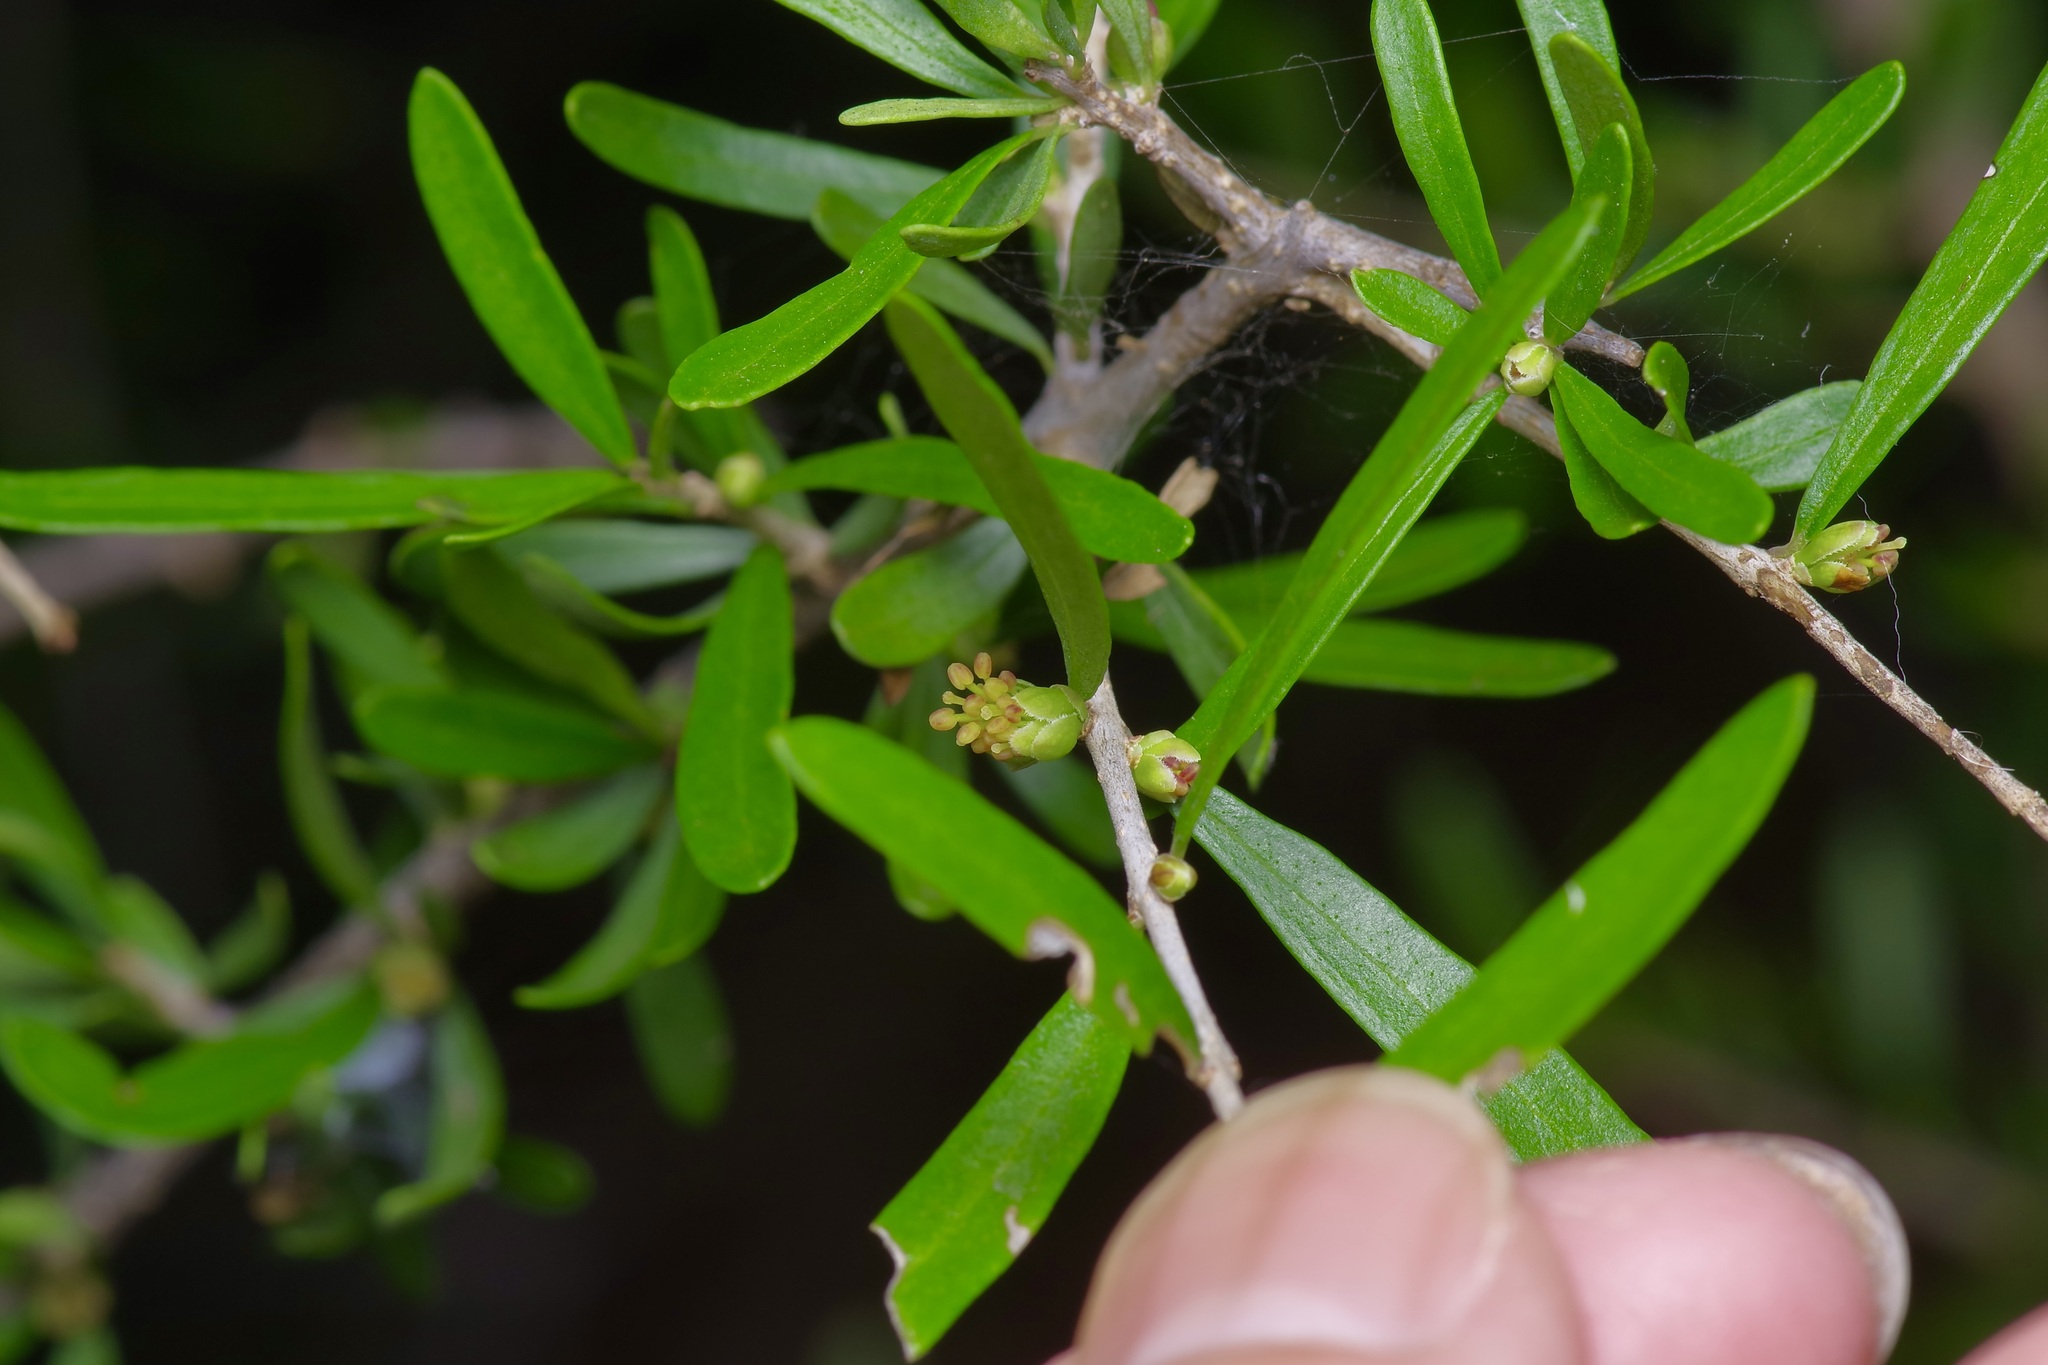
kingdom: Plantae
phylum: Tracheophyta
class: Magnoliopsida
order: Lamiales
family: Oleaceae
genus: Forestiera
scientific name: Forestiera angustifolia
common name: Elbowbush
